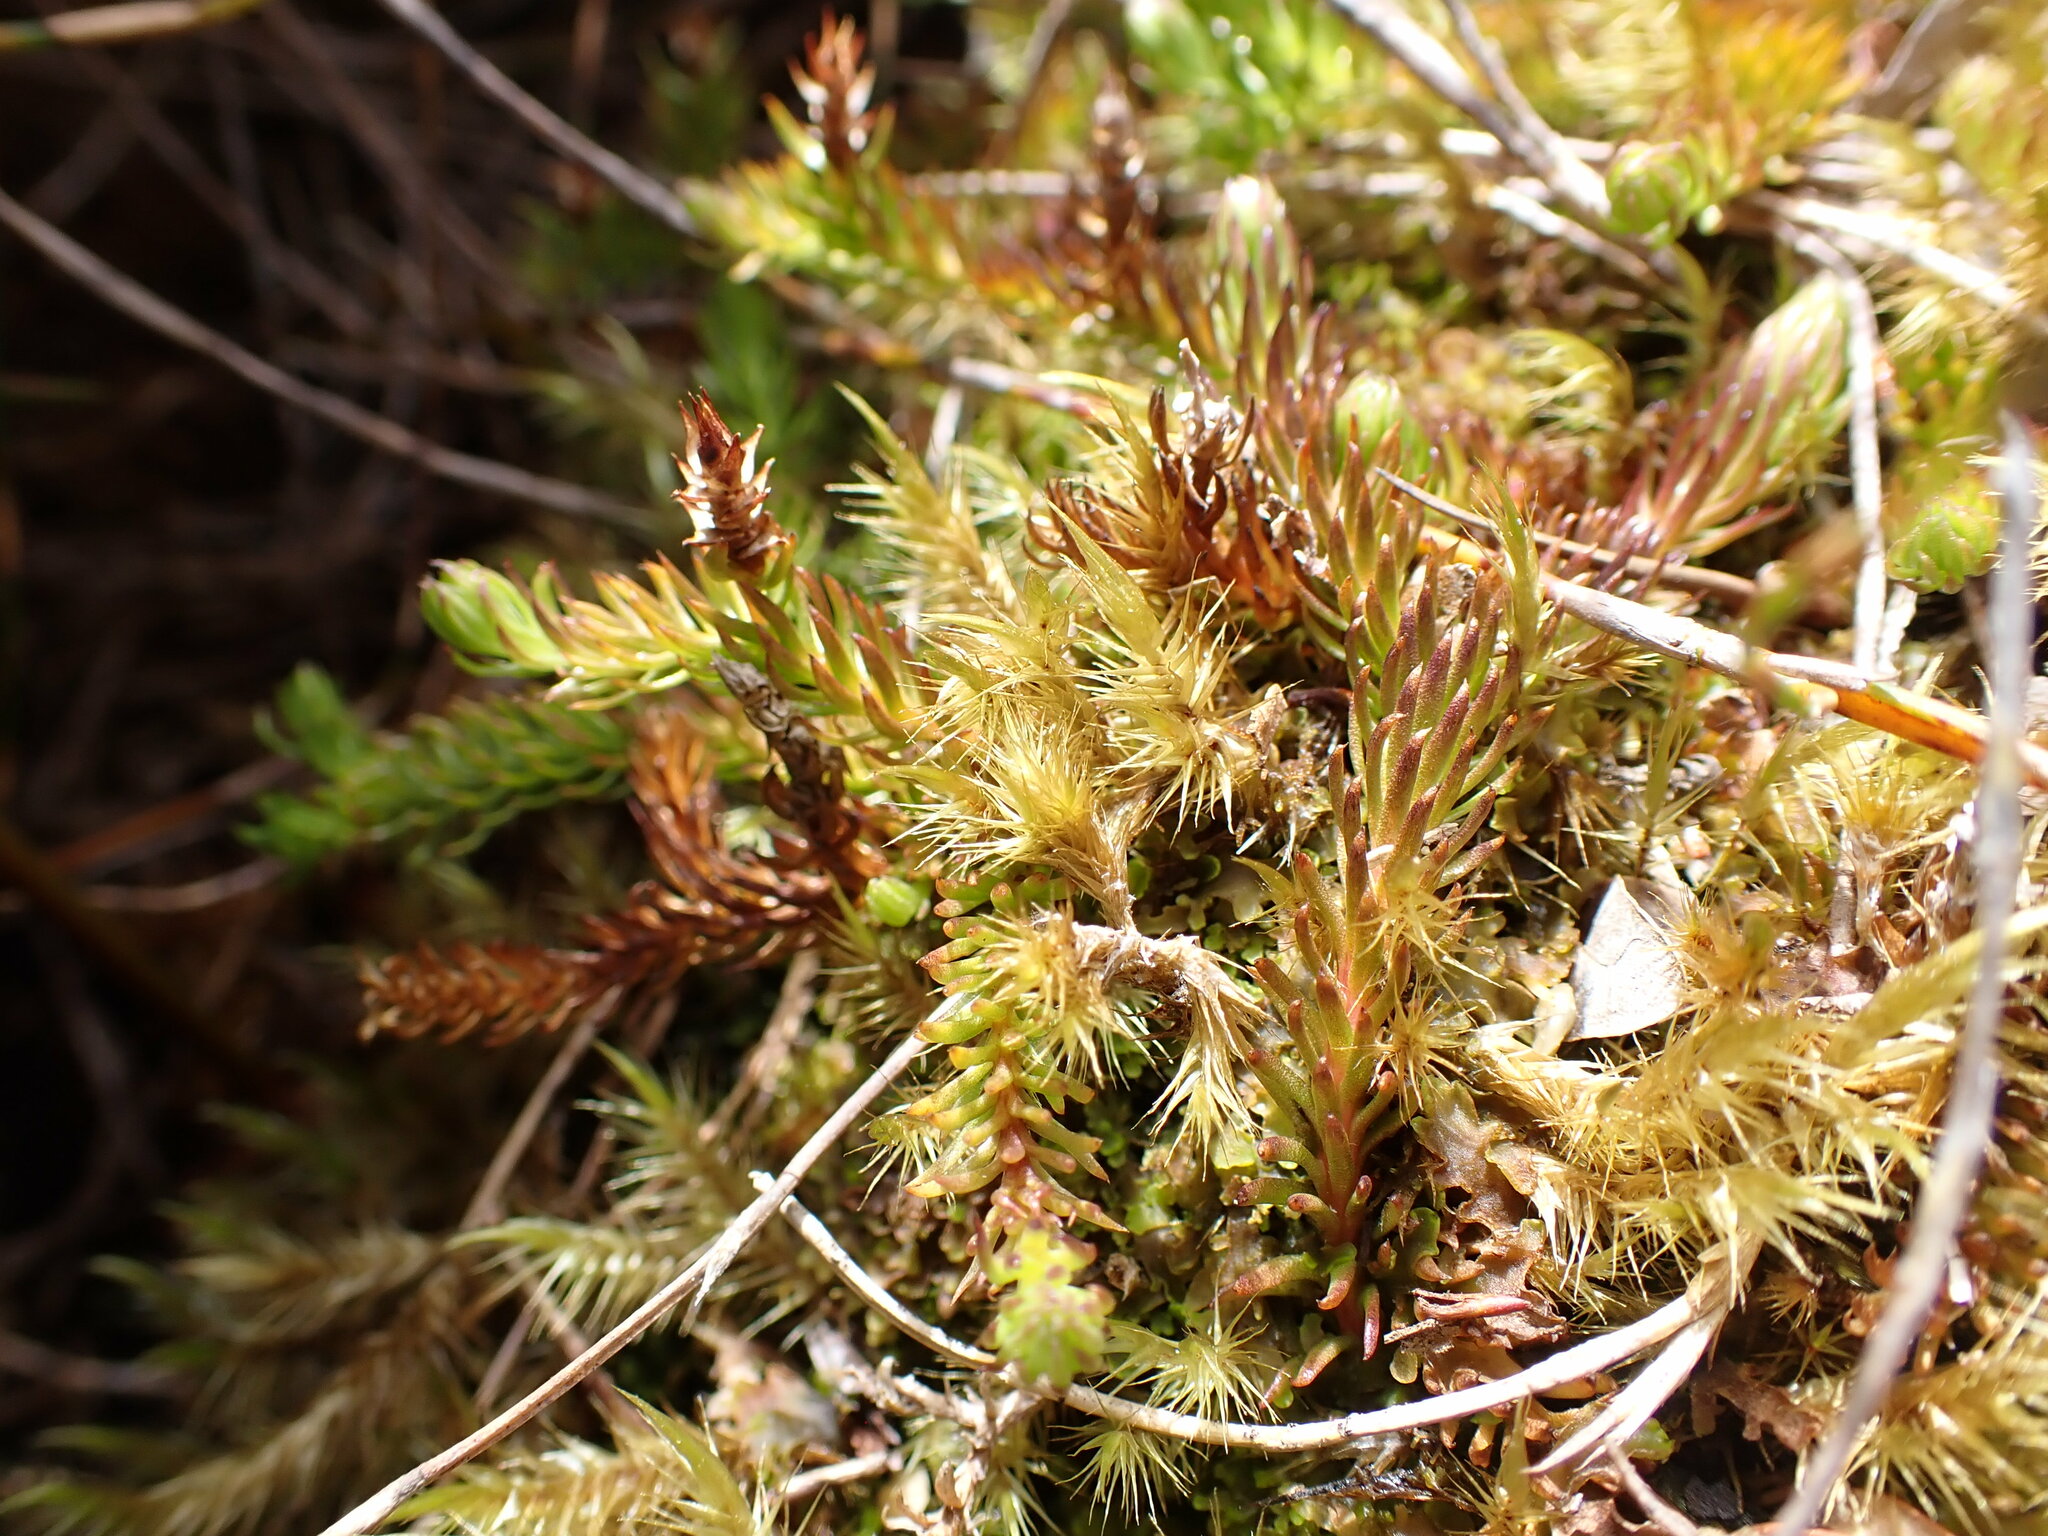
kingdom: Plantae
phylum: Tracheophyta
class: Lycopodiopsida
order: Lycopodiales
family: Lycopodiaceae
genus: Lateristachys
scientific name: Lateristachys diffusa
